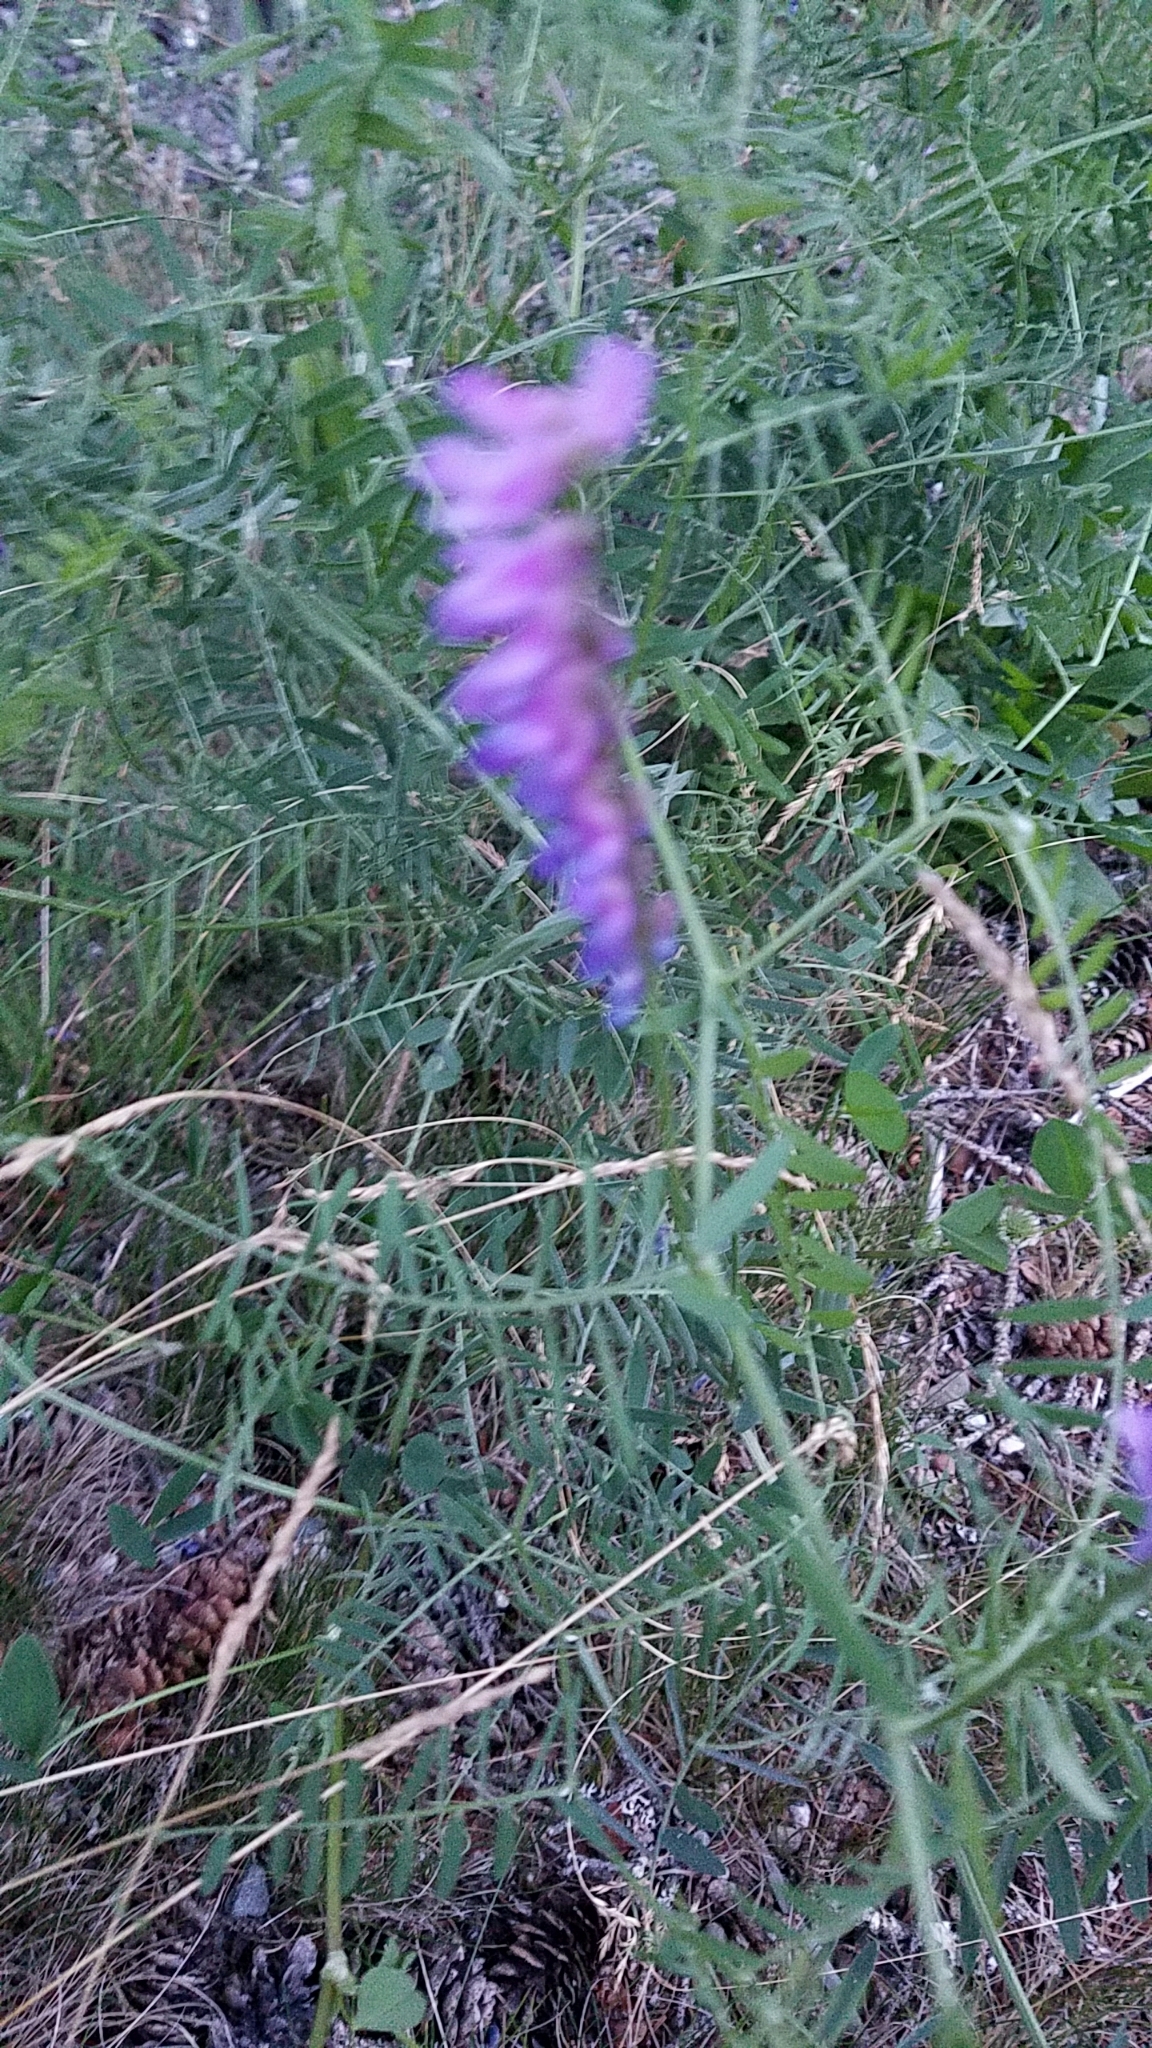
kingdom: Plantae
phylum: Tracheophyta
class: Magnoliopsida
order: Fabales
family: Fabaceae
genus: Vicia
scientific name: Vicia cracca
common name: Bird vetch
